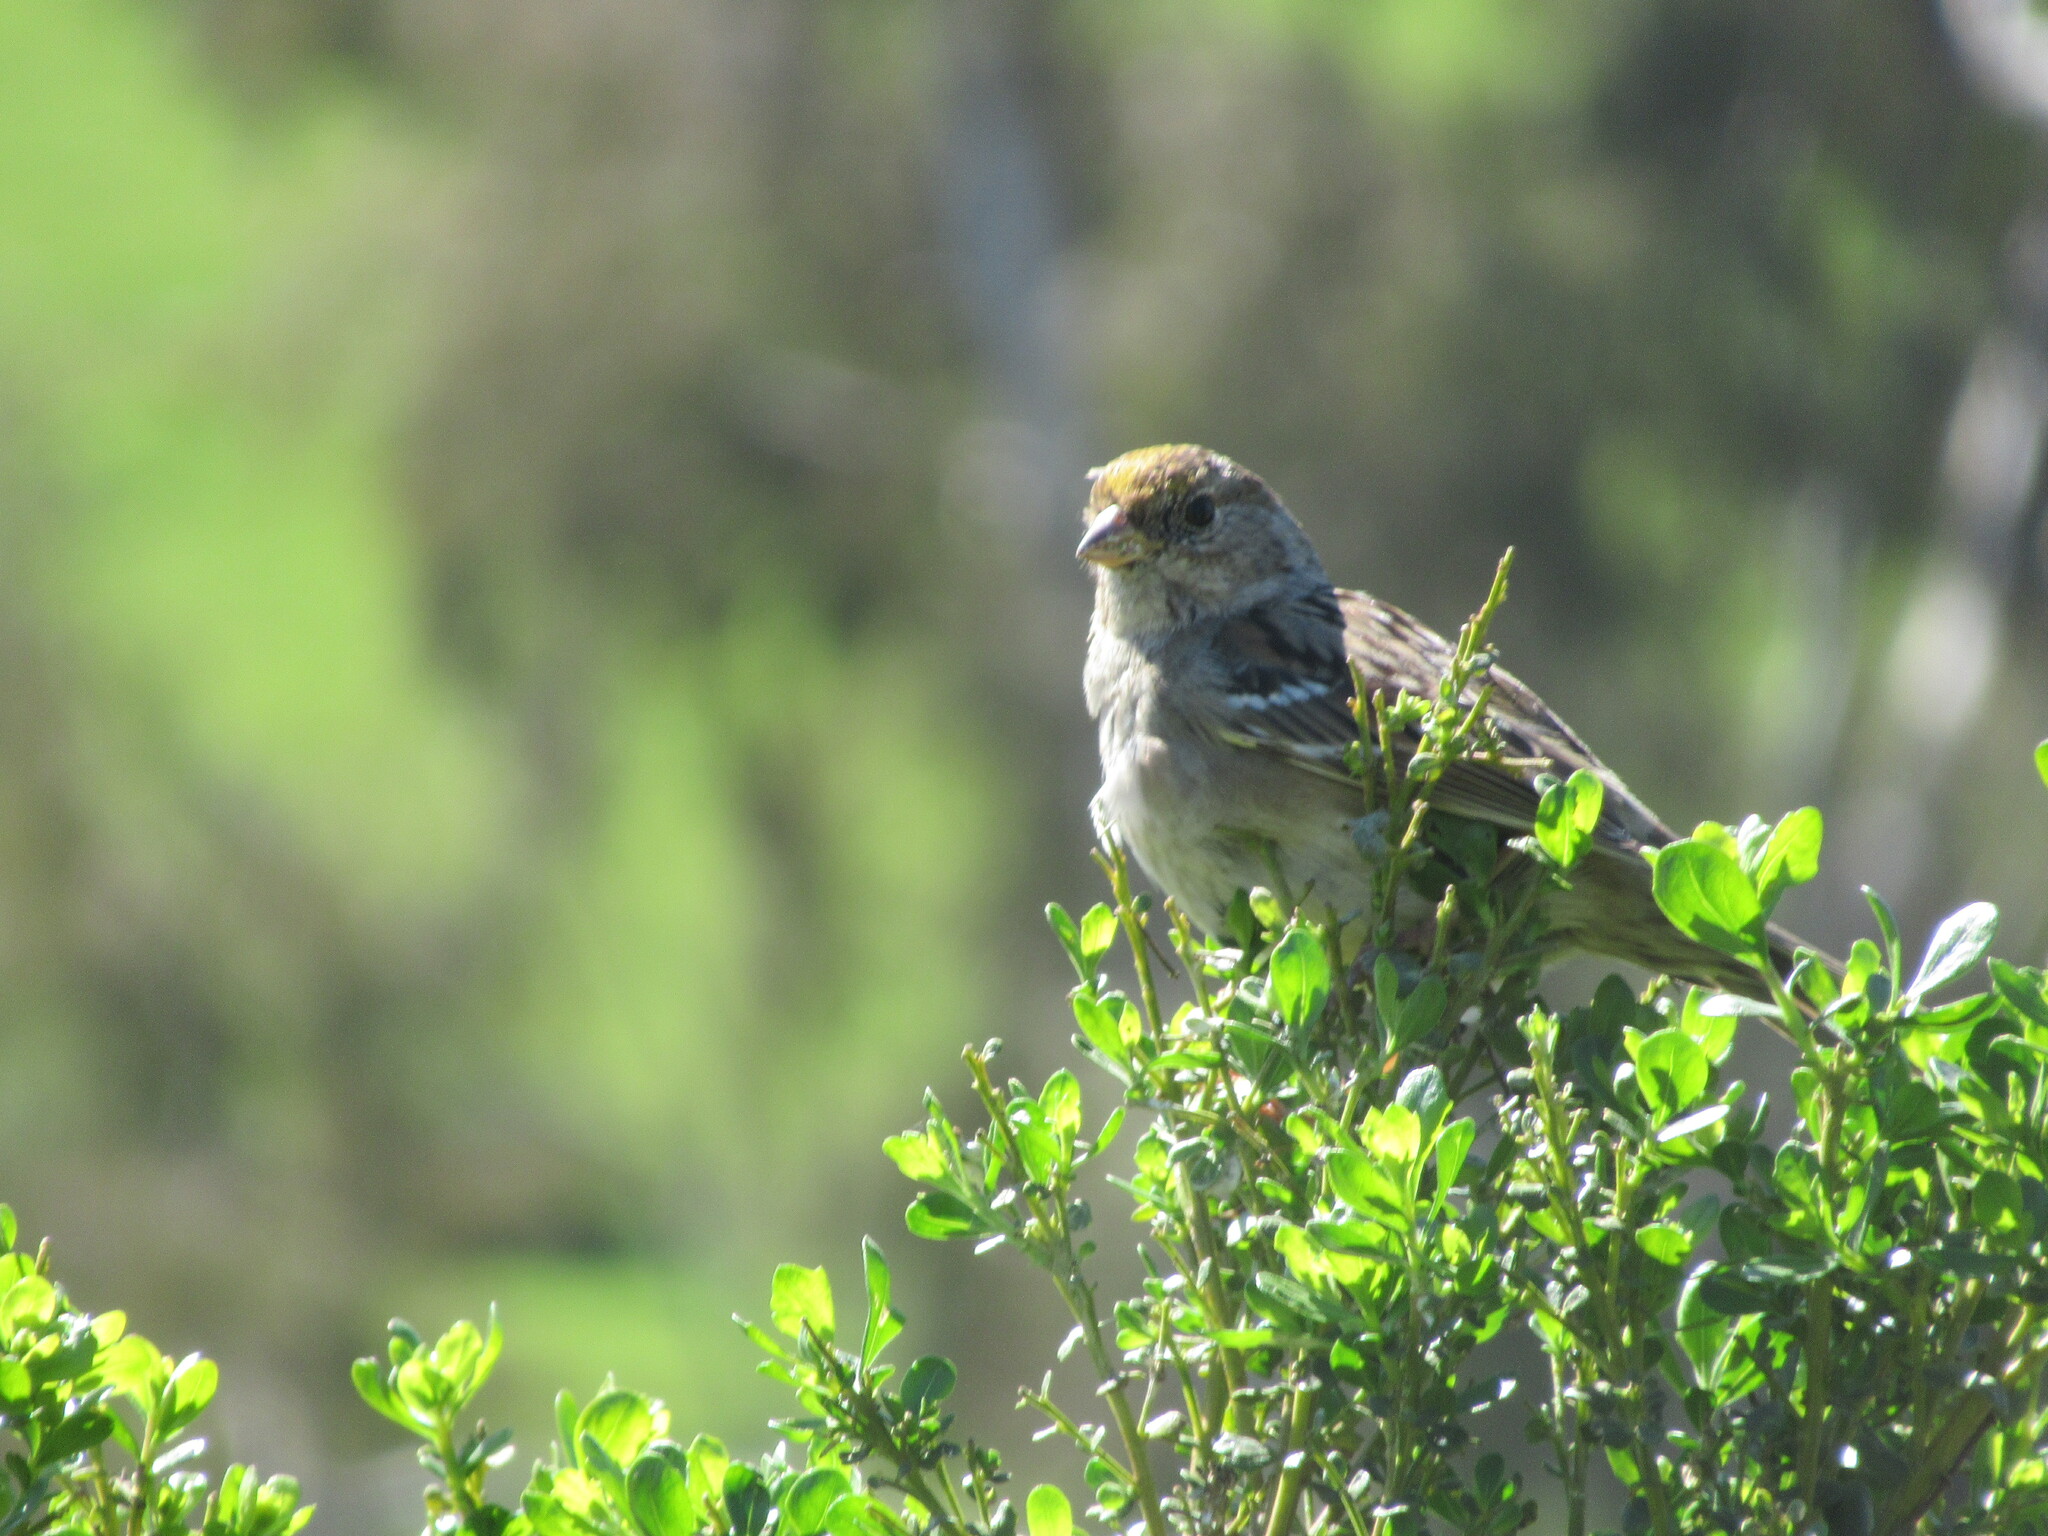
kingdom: Animalia
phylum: Chordata
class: Aves
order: Passeriformes
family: Passerellidae
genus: Zonotrichia
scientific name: Zonotrichia atricapilla
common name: Golden-crowned sparrow
